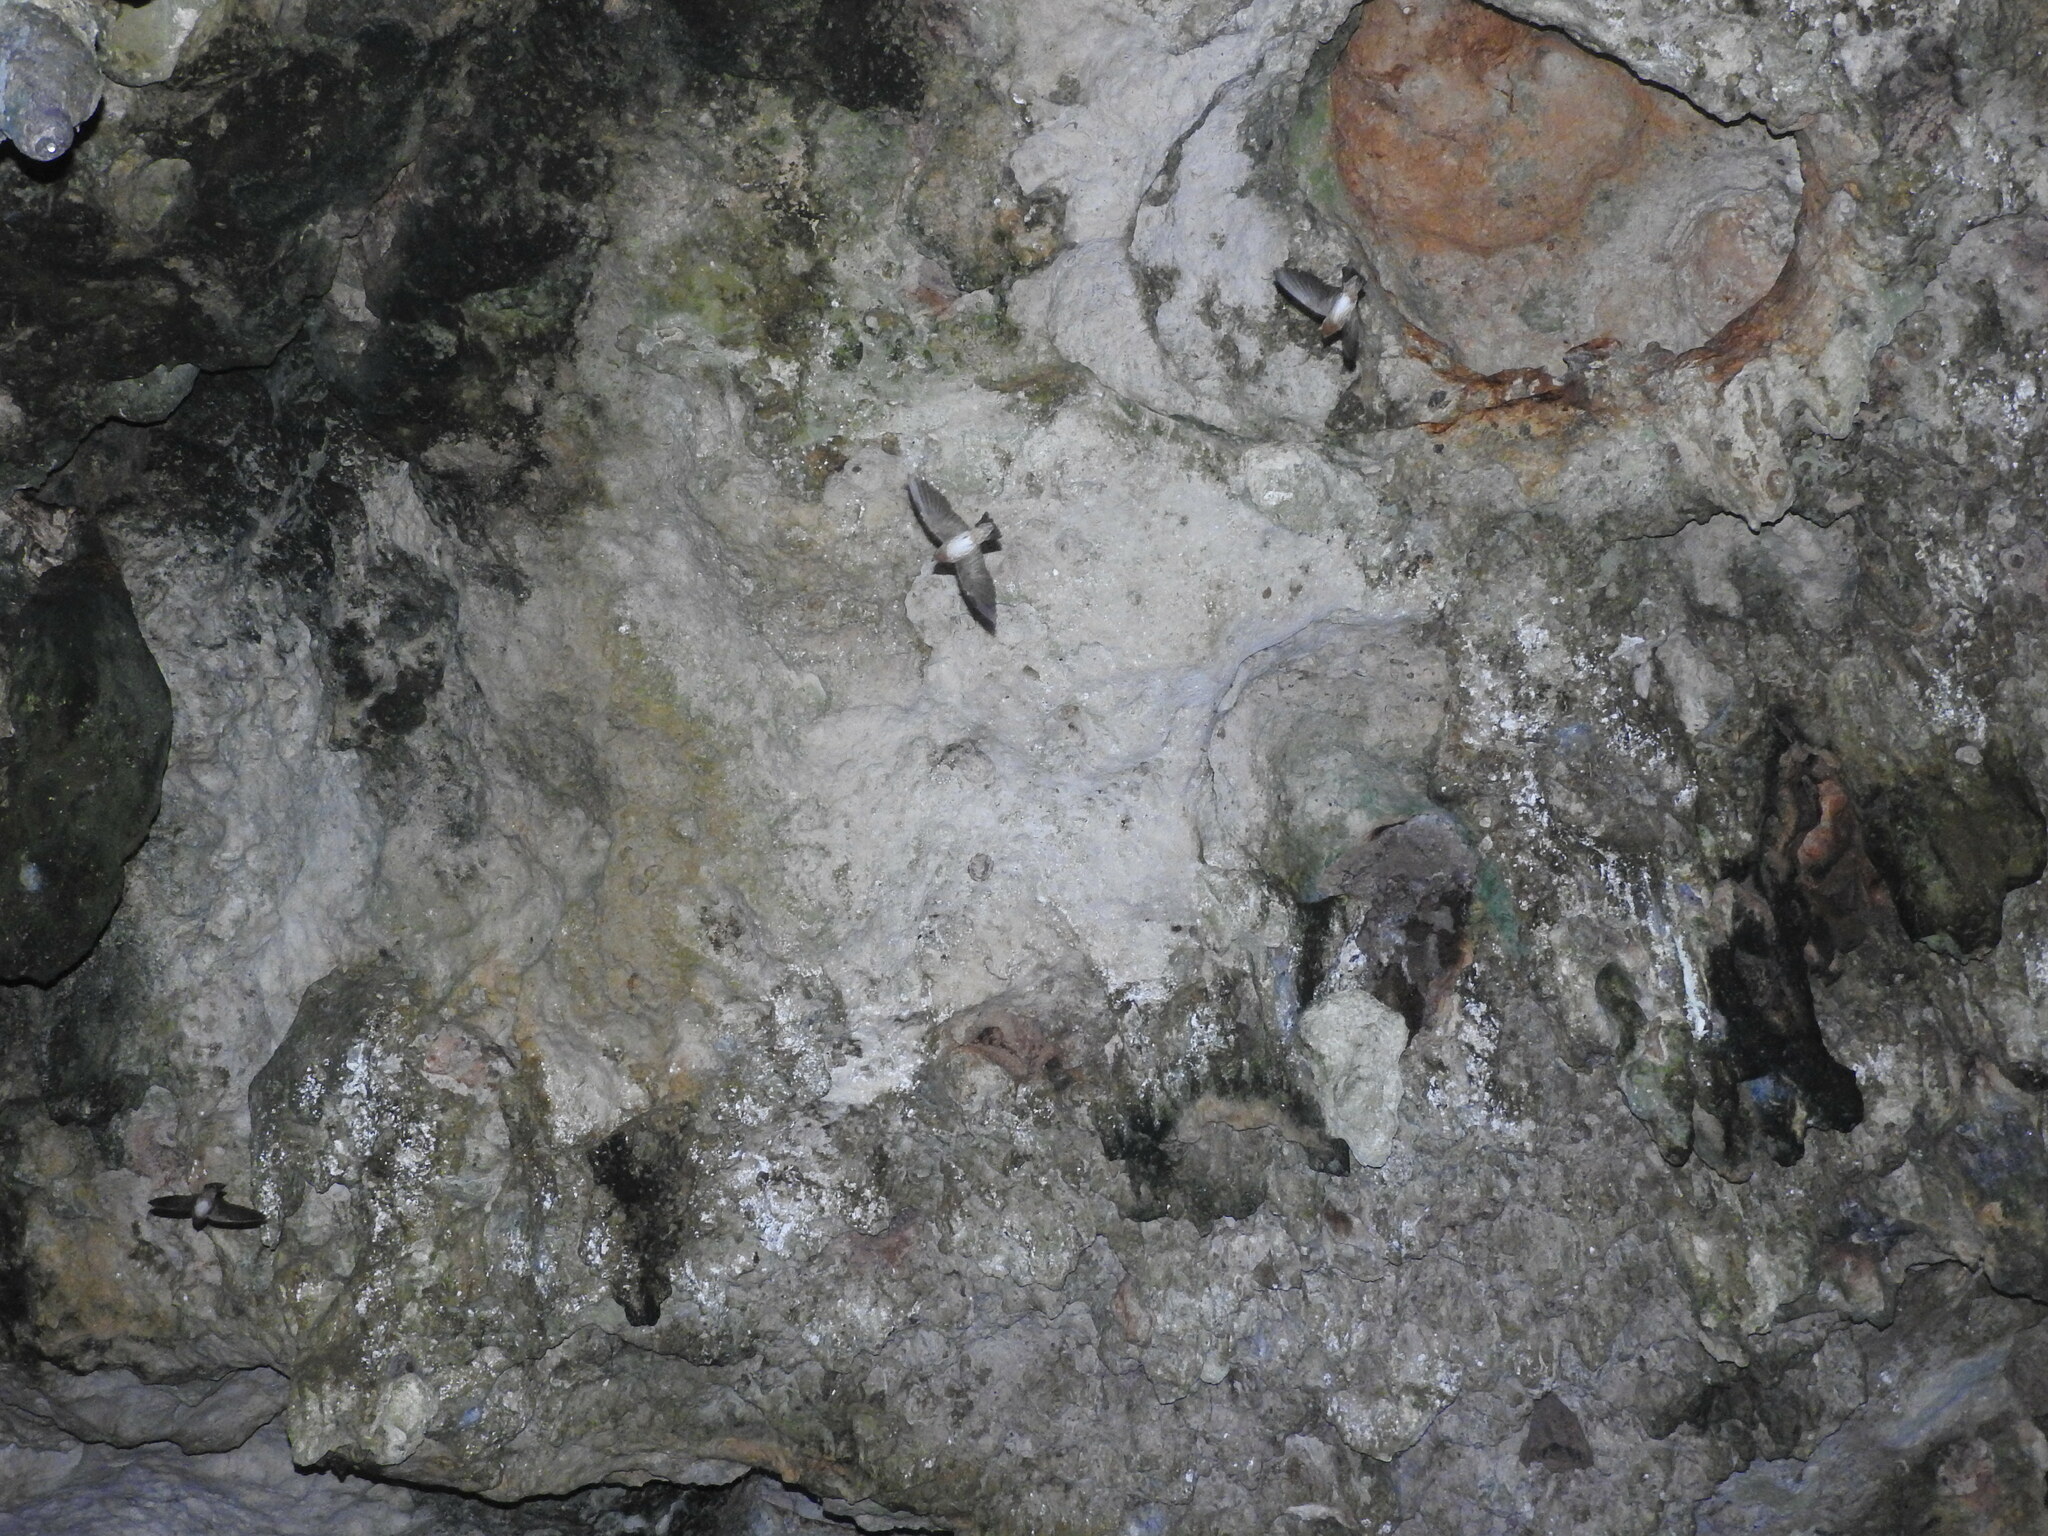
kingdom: Animalia
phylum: Chordata
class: Aves
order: Passeriformes
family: Hirundinidae
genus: Petrochelidon
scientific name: Petrochelidon fulva
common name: Cave swallow
